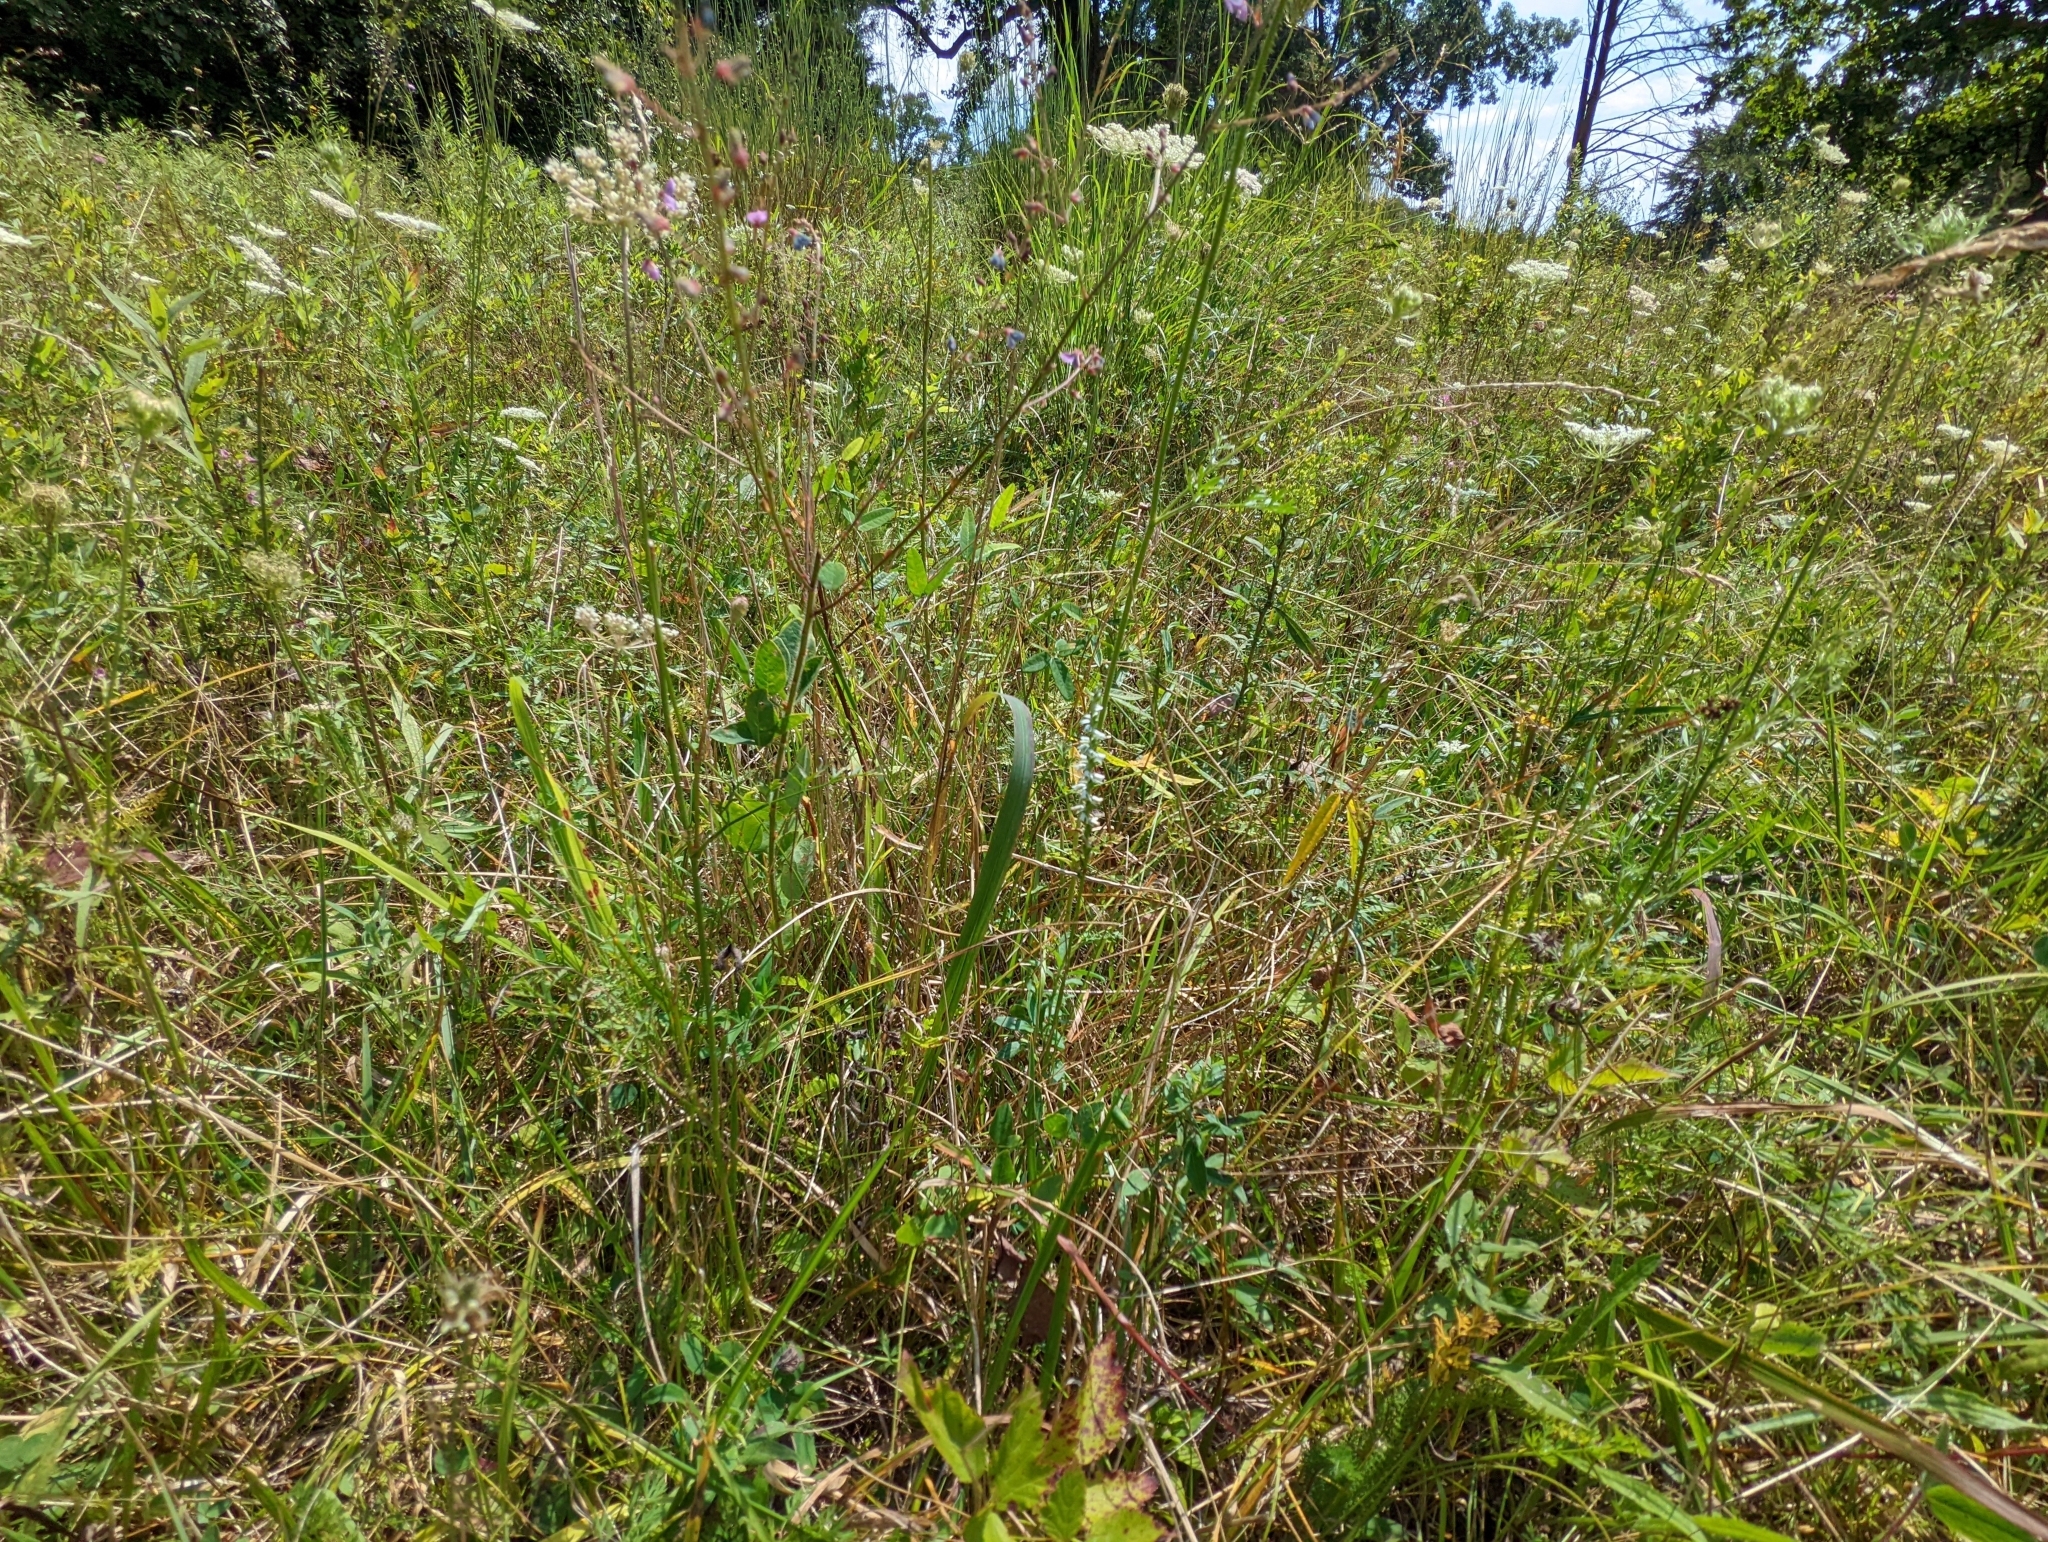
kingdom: Plantae
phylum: Tracheophyta
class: Liliopsida
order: Asparagales
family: Orchidaceae
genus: Spiranthes
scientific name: Spiranthes lacera
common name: Northern slender ladies'-tresses
